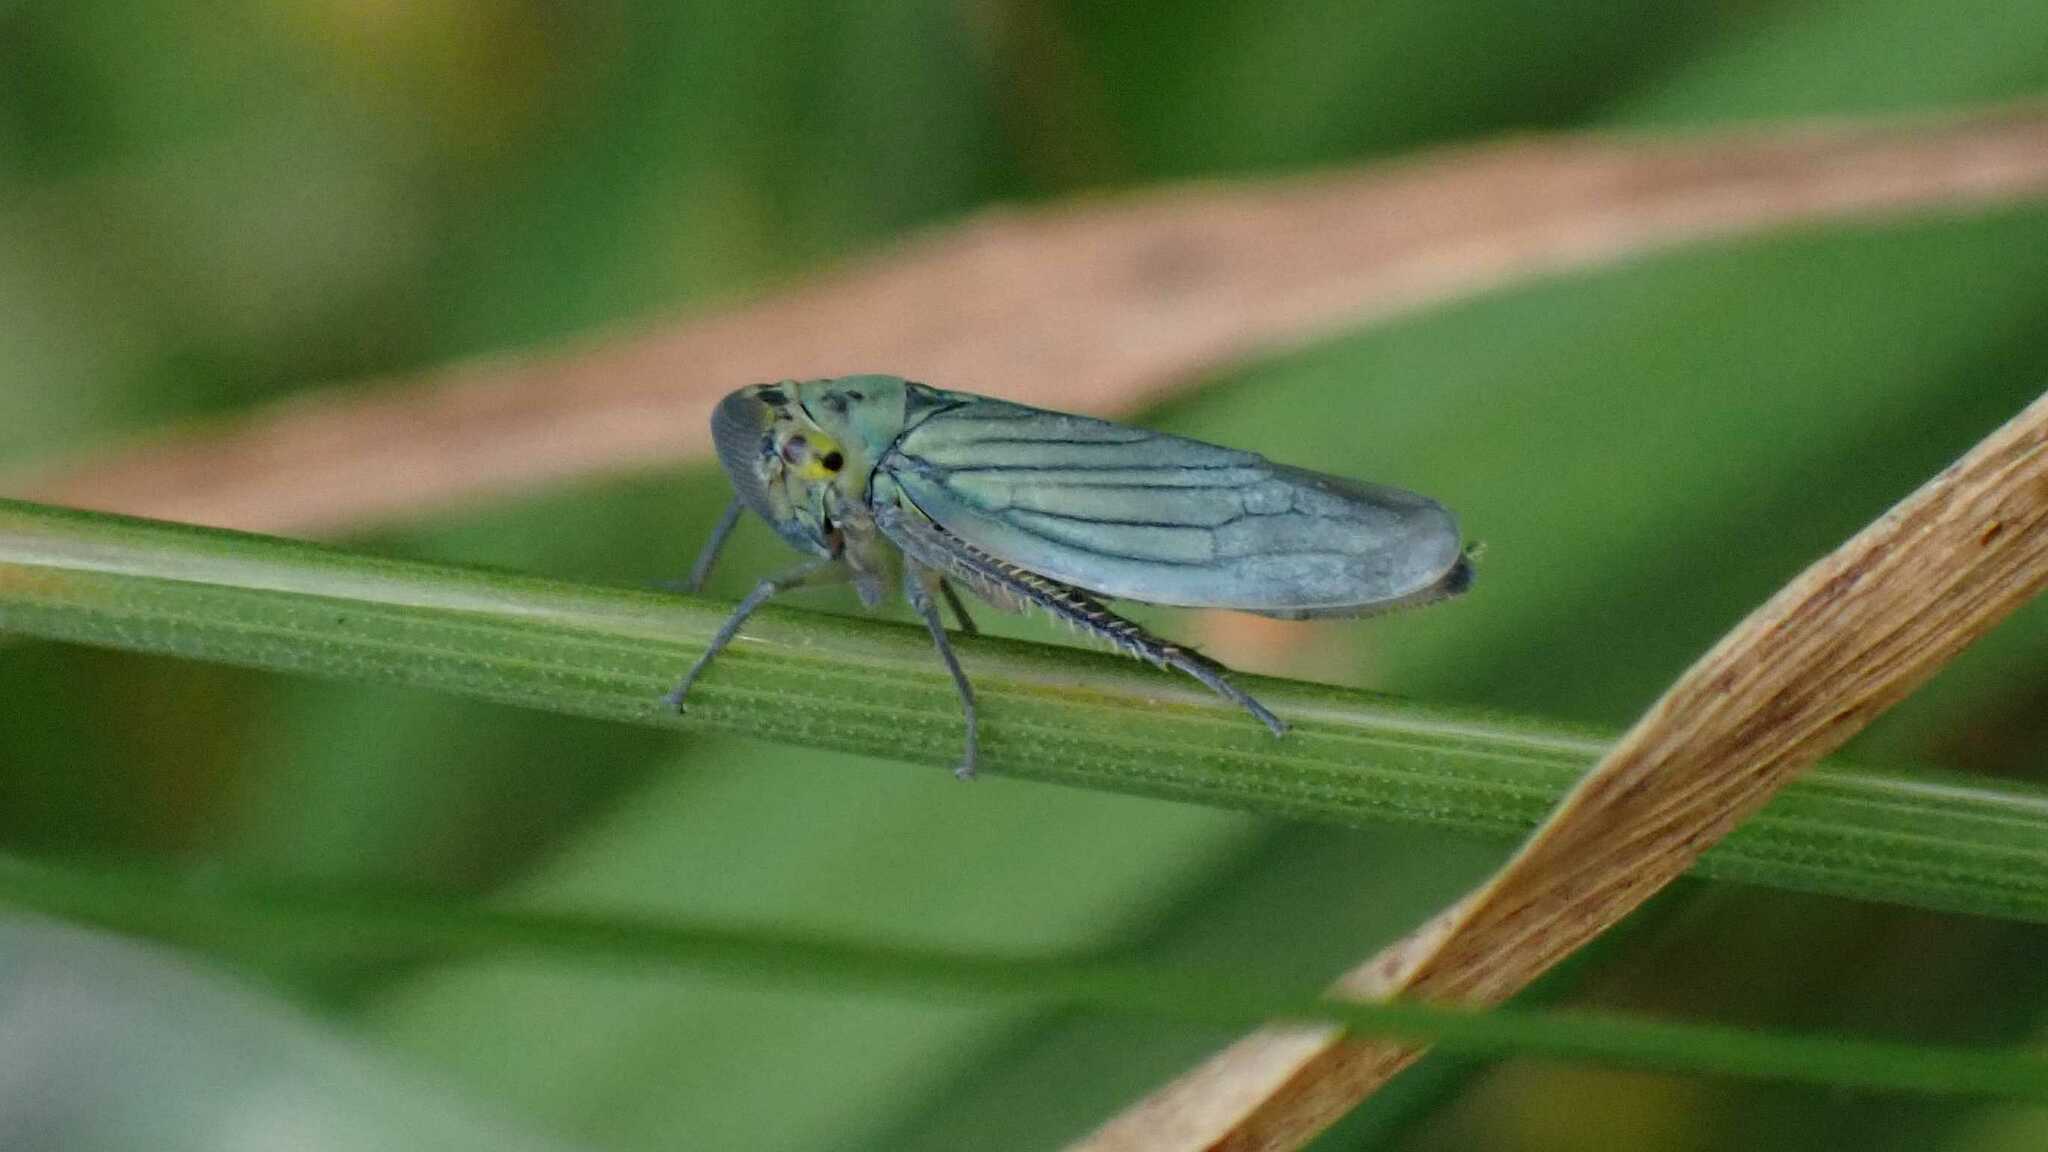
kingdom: Animalia
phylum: Arthropoda
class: Insecta
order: Hemiptera
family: Cicadellidae
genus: Cicadella
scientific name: Cicadella viridis
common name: Leafhopper
